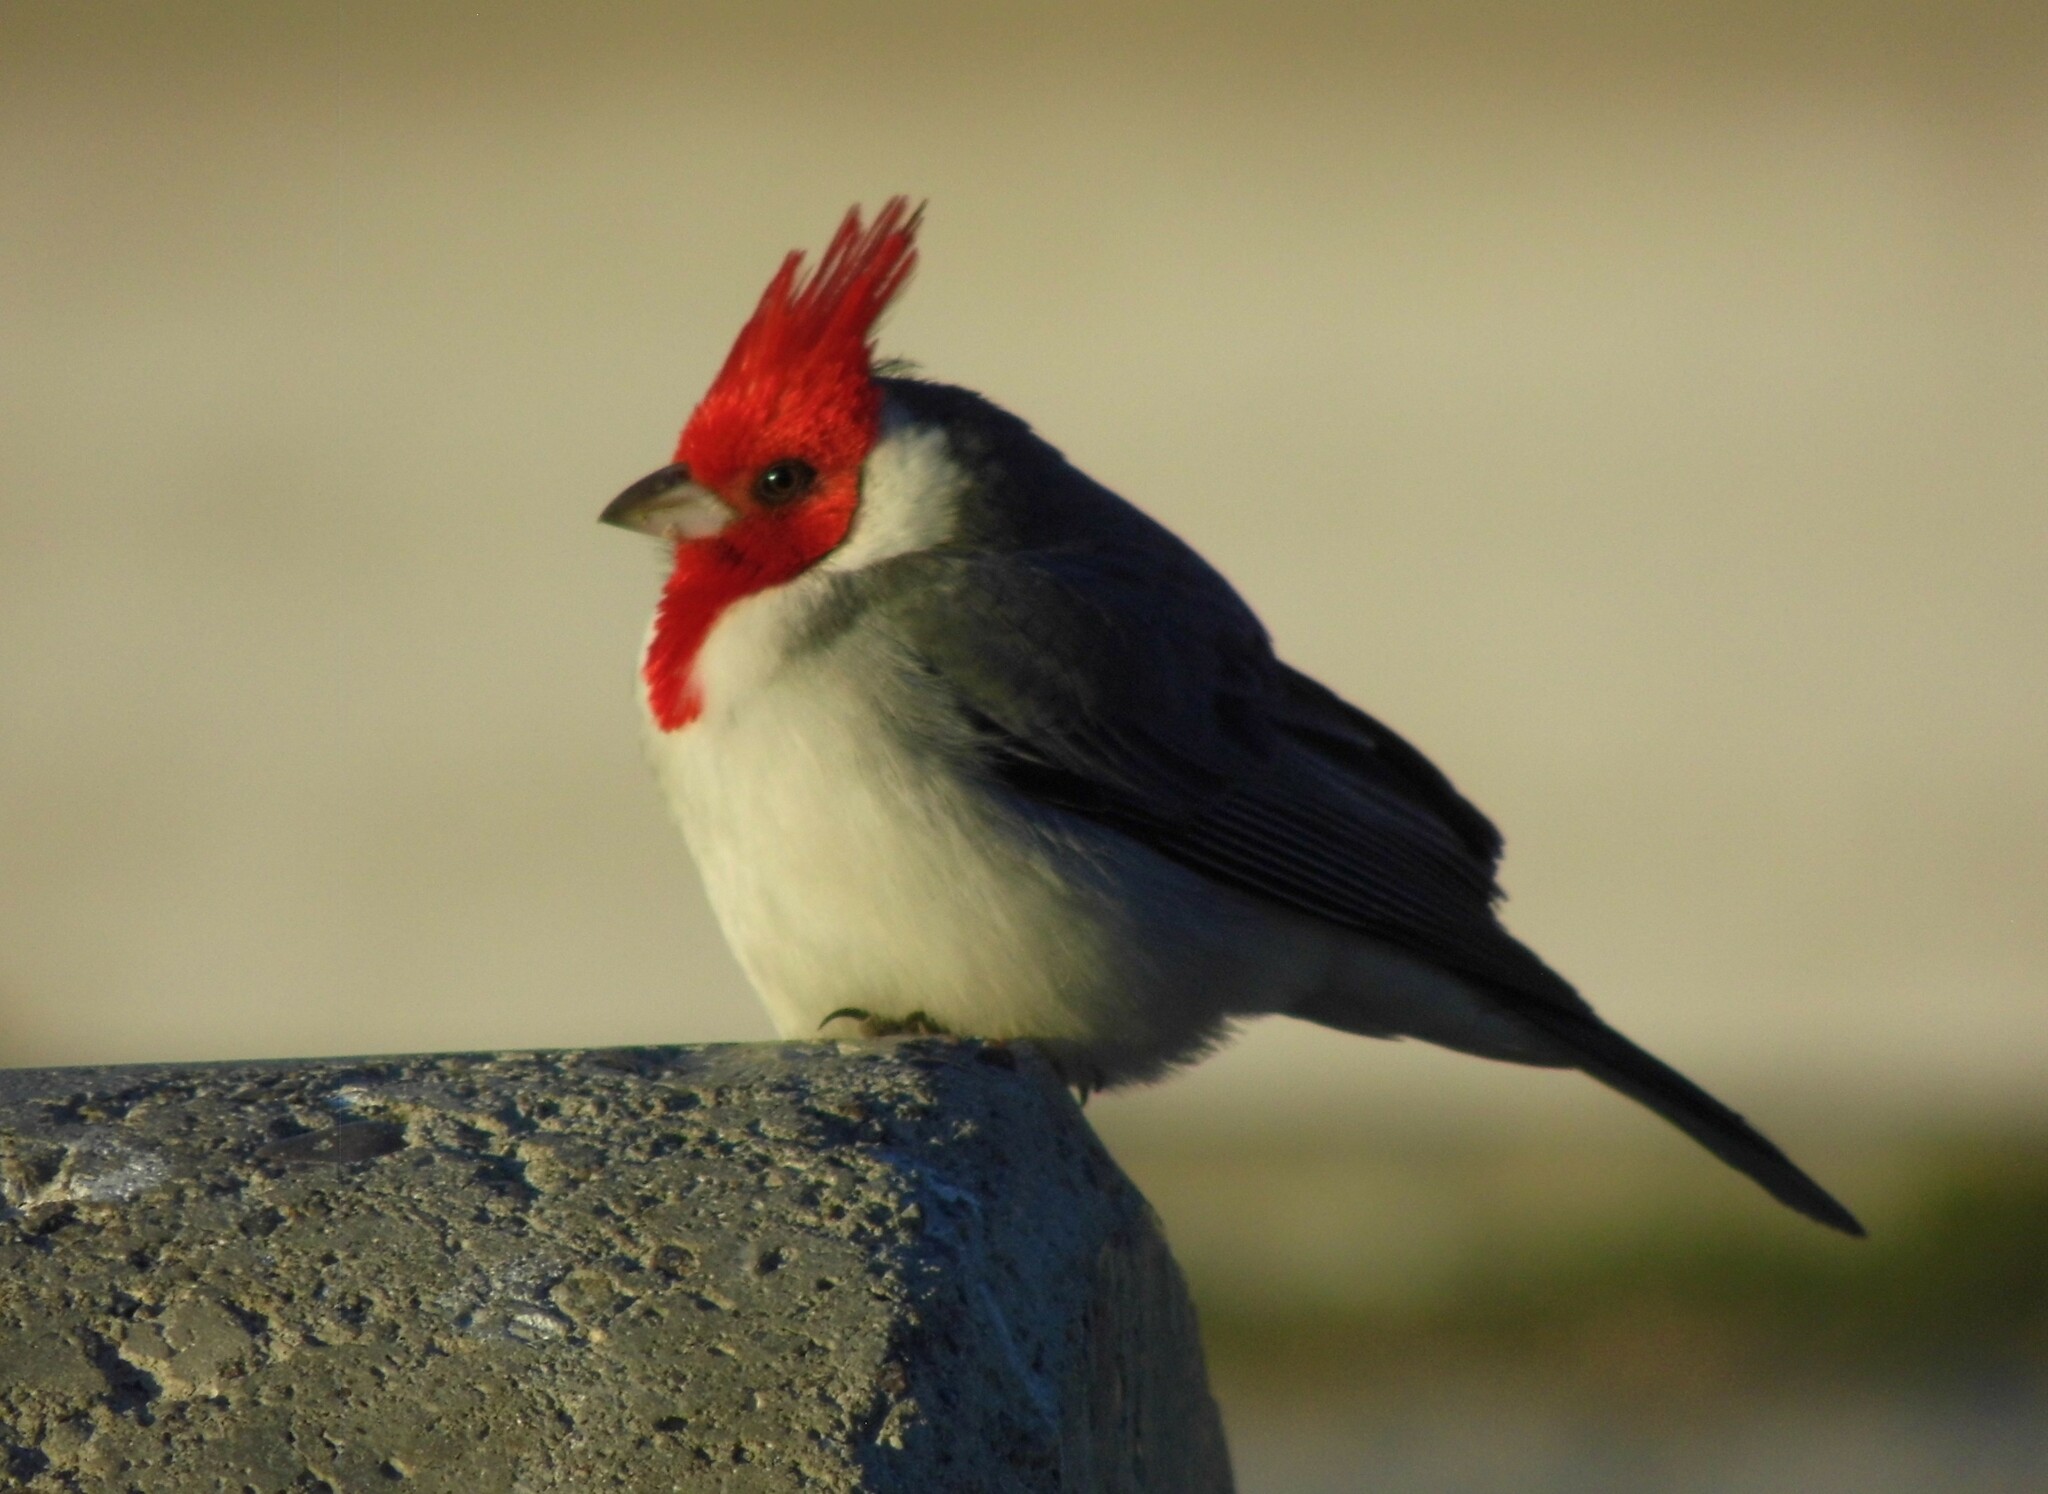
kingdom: Animalia
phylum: Chordata
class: Aves
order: Passeriformes
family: Thraupidae
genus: Paroaria
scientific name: Paroaria coronata
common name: Red-crested cardinal
